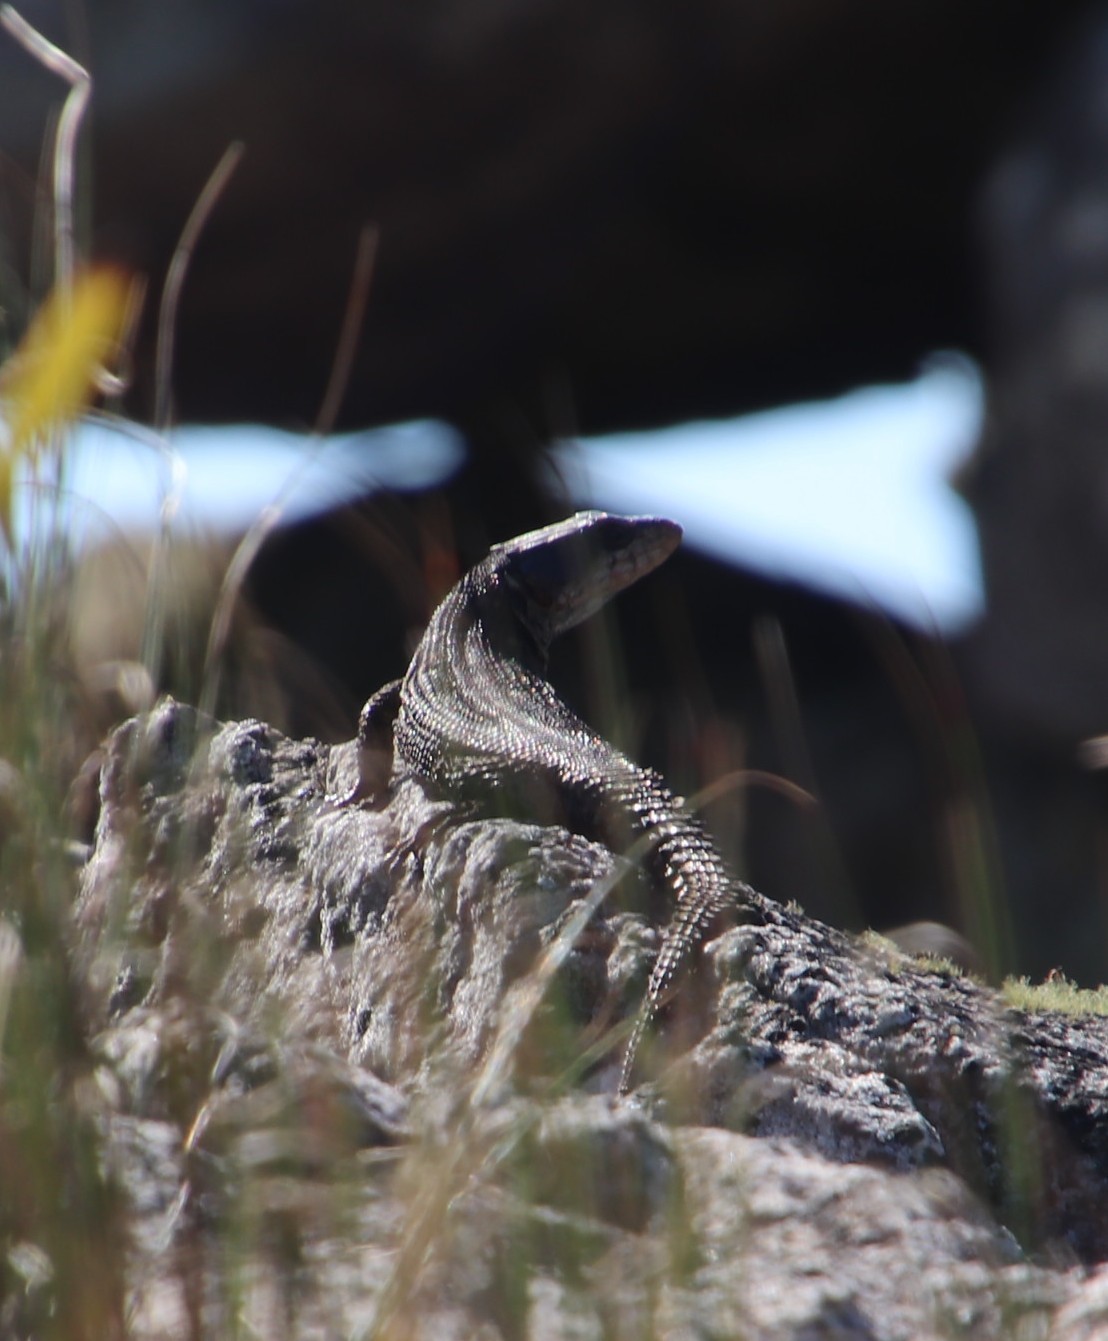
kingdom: Animalia
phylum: Chordata
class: Squamata
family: Cordylidae
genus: Pseudocordylus
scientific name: Pseudocordylus microlepidotus
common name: Cape crag lizard
